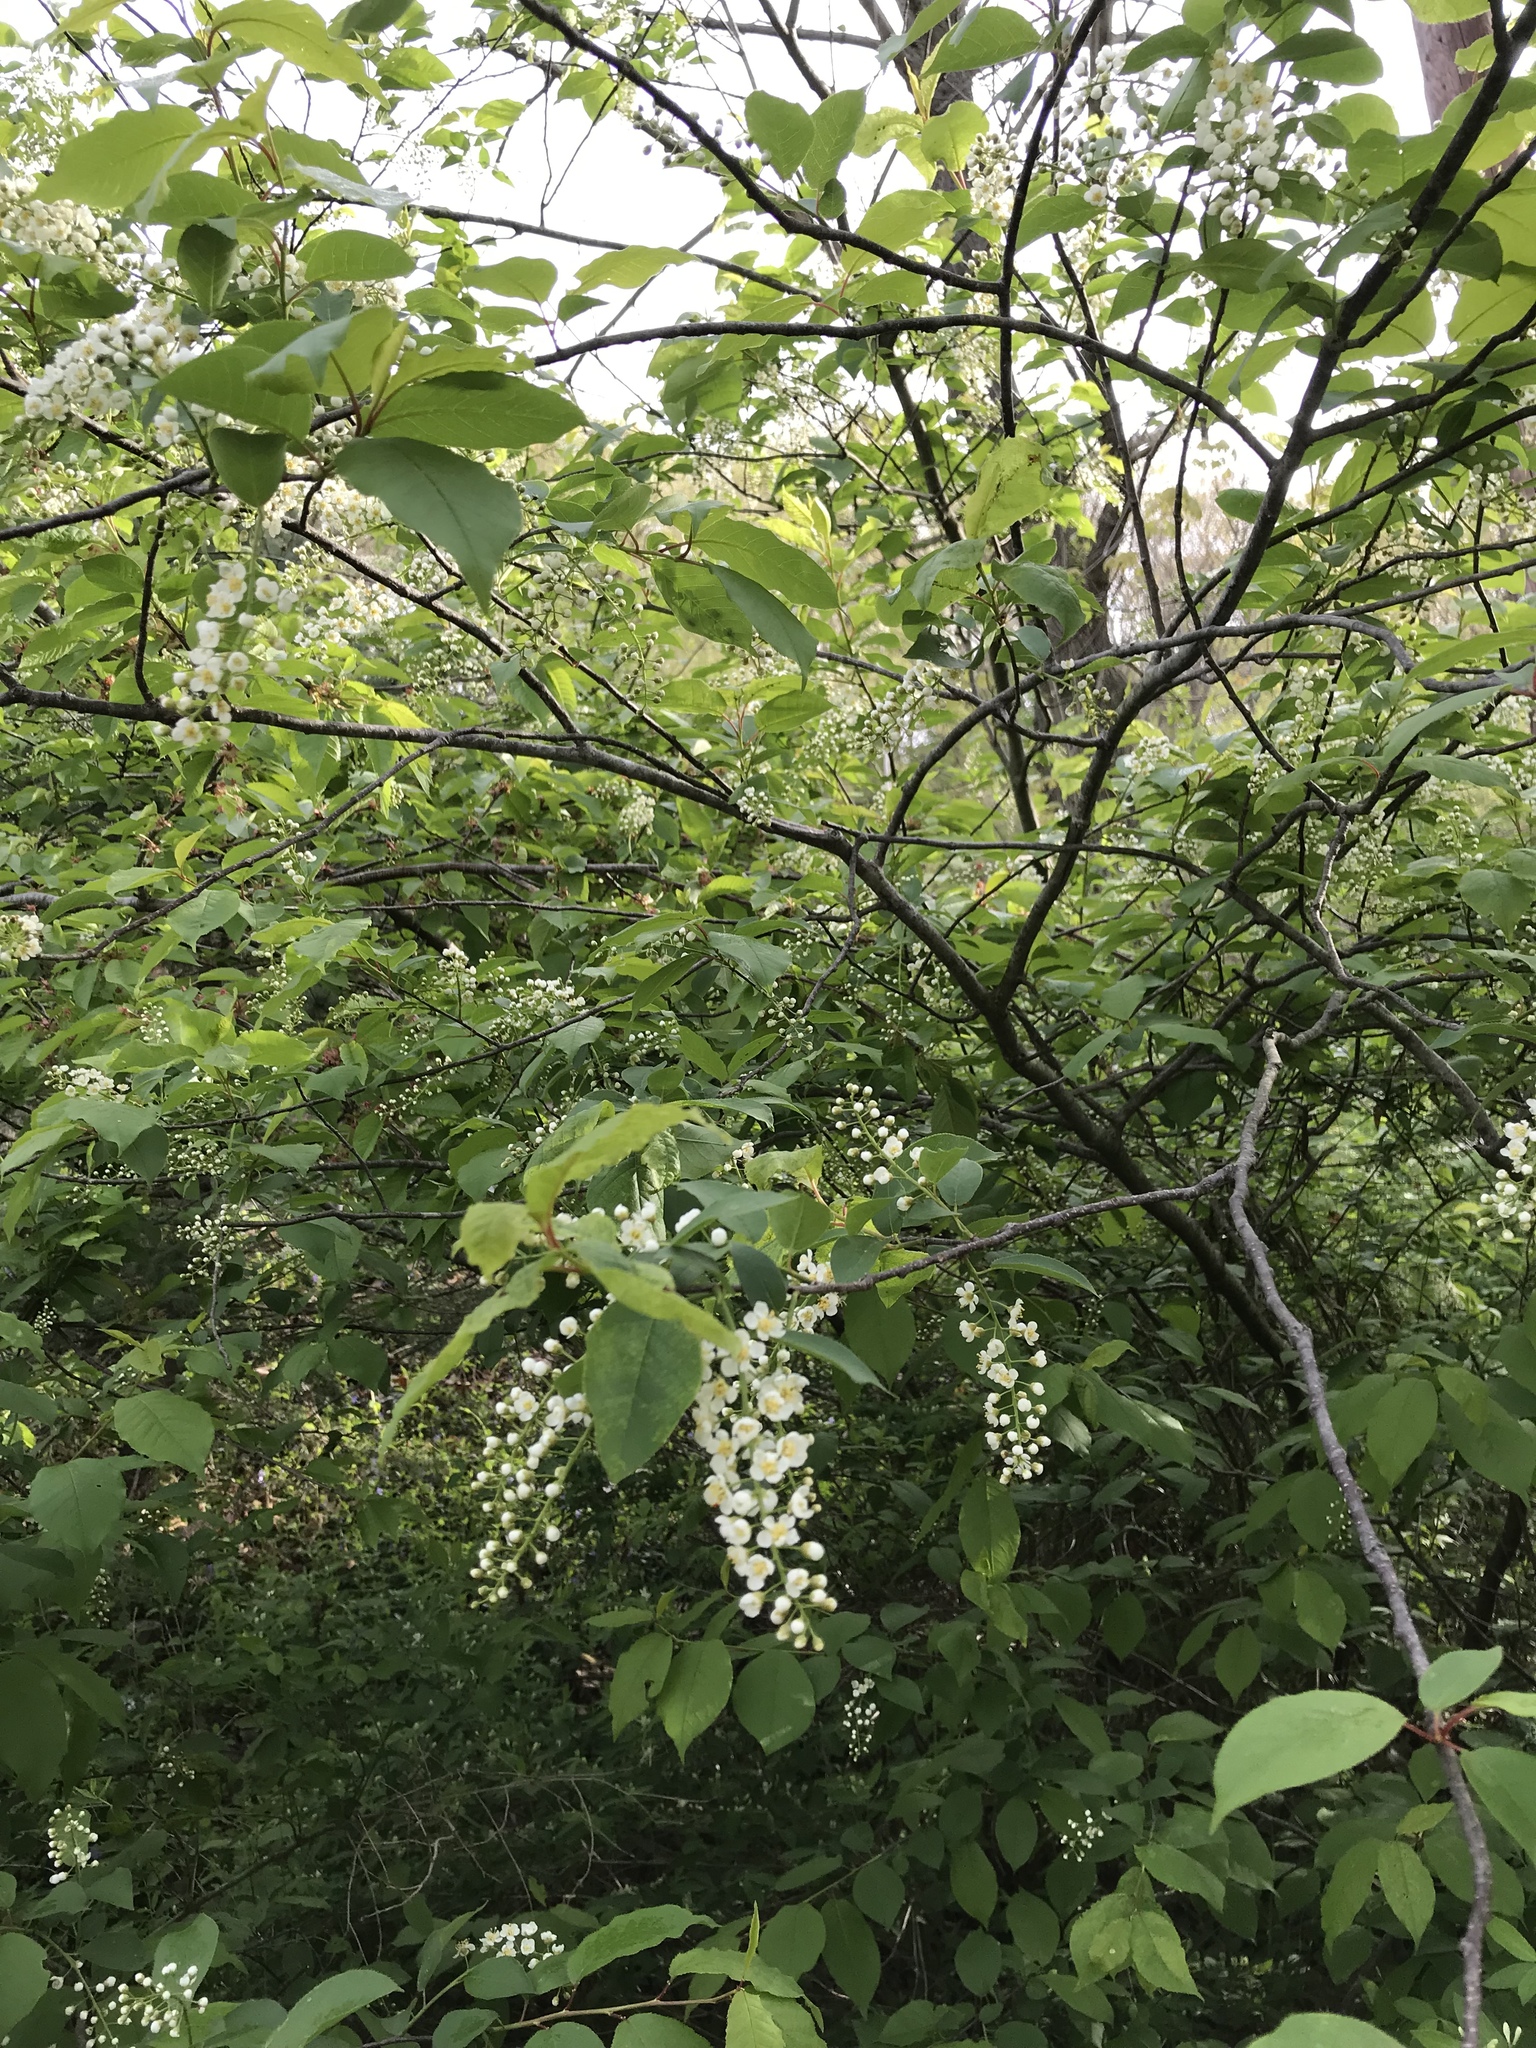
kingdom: Plantae
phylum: Tracheophyta
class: Magnoliopsida
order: Rosales
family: Rosaceae
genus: Prunus
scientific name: Prunus virginiana
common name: Chokecherry
